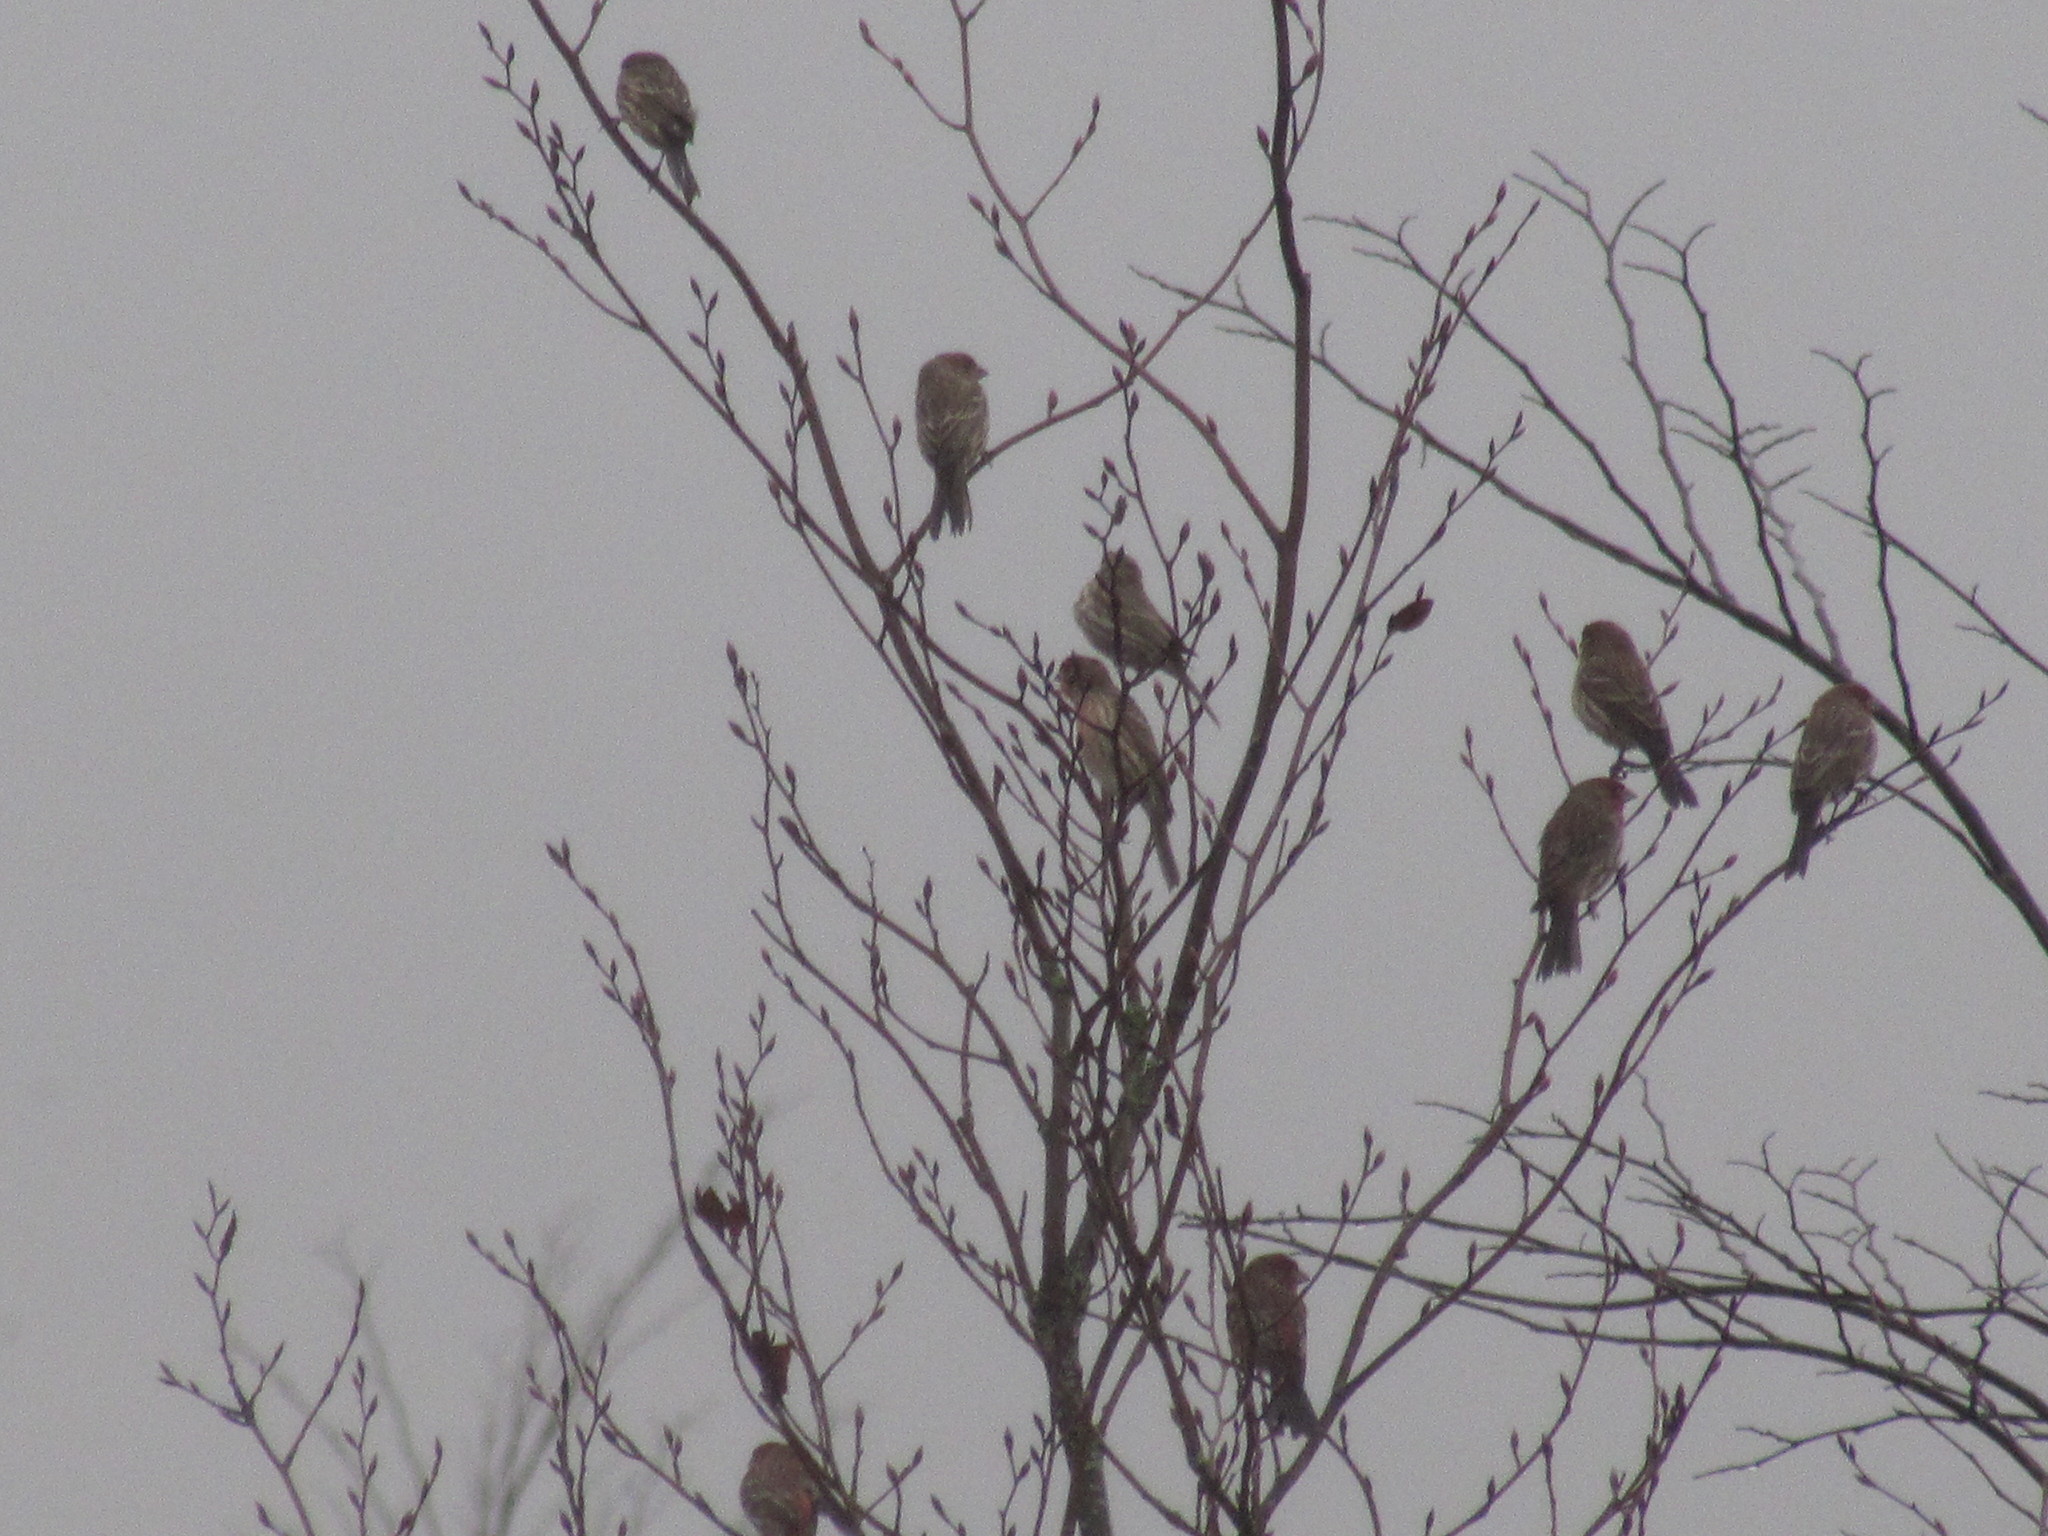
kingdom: Animalia
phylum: Chordata
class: Aves
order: Passeriformes
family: Fringillidae
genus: Haemorhous
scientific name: Haemorhous mexicanus
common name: House finch
